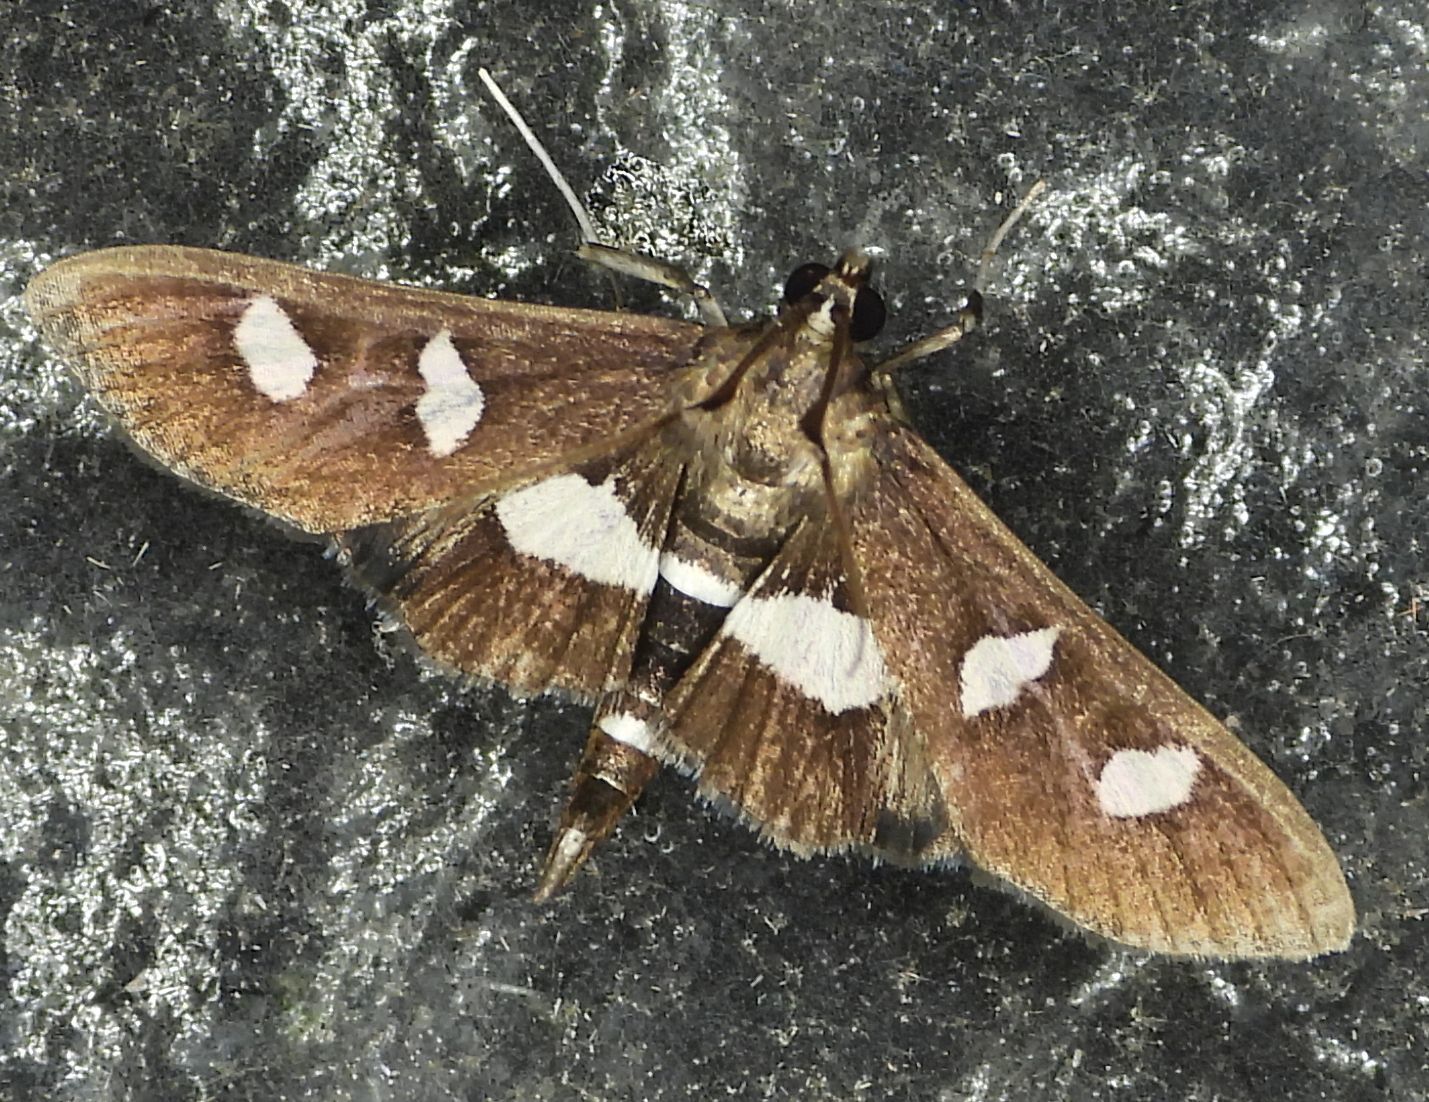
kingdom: Animalia
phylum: Arthropoda
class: Insecta
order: Lepidoptera
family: Crambidae
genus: Desmia
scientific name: Desmia
